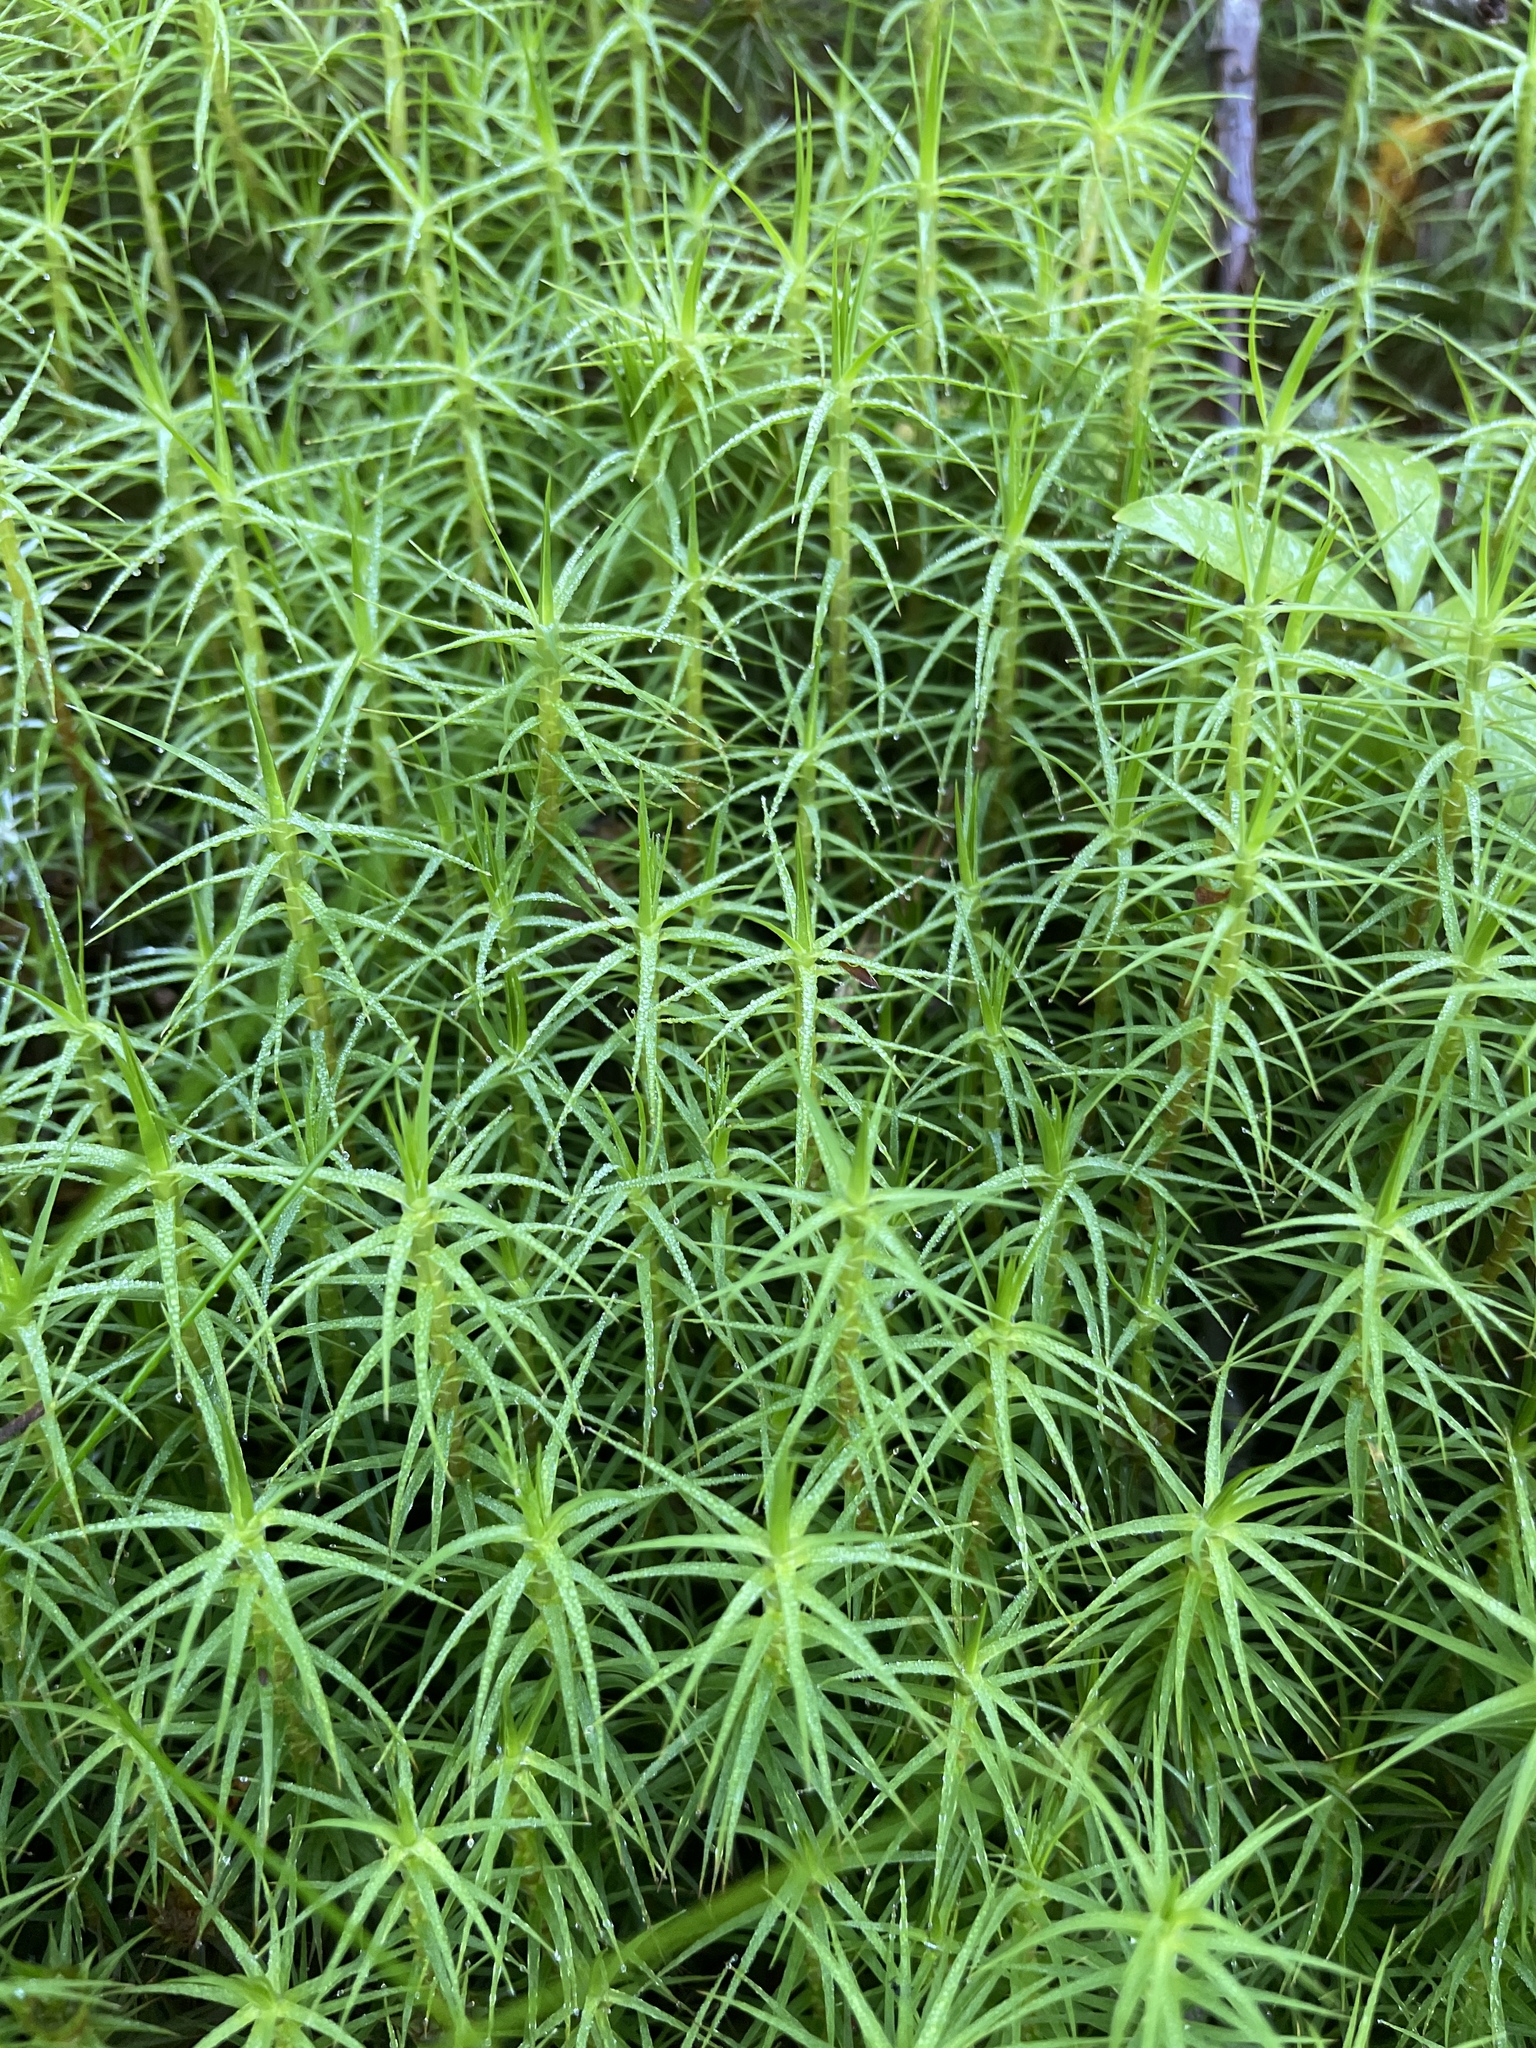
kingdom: Plantae
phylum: Bryophyta
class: Polytrichopsida
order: Polytrichales
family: Polytrichaceae
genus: Polytrichum
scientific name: Polytrichum commune
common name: Common haircap
